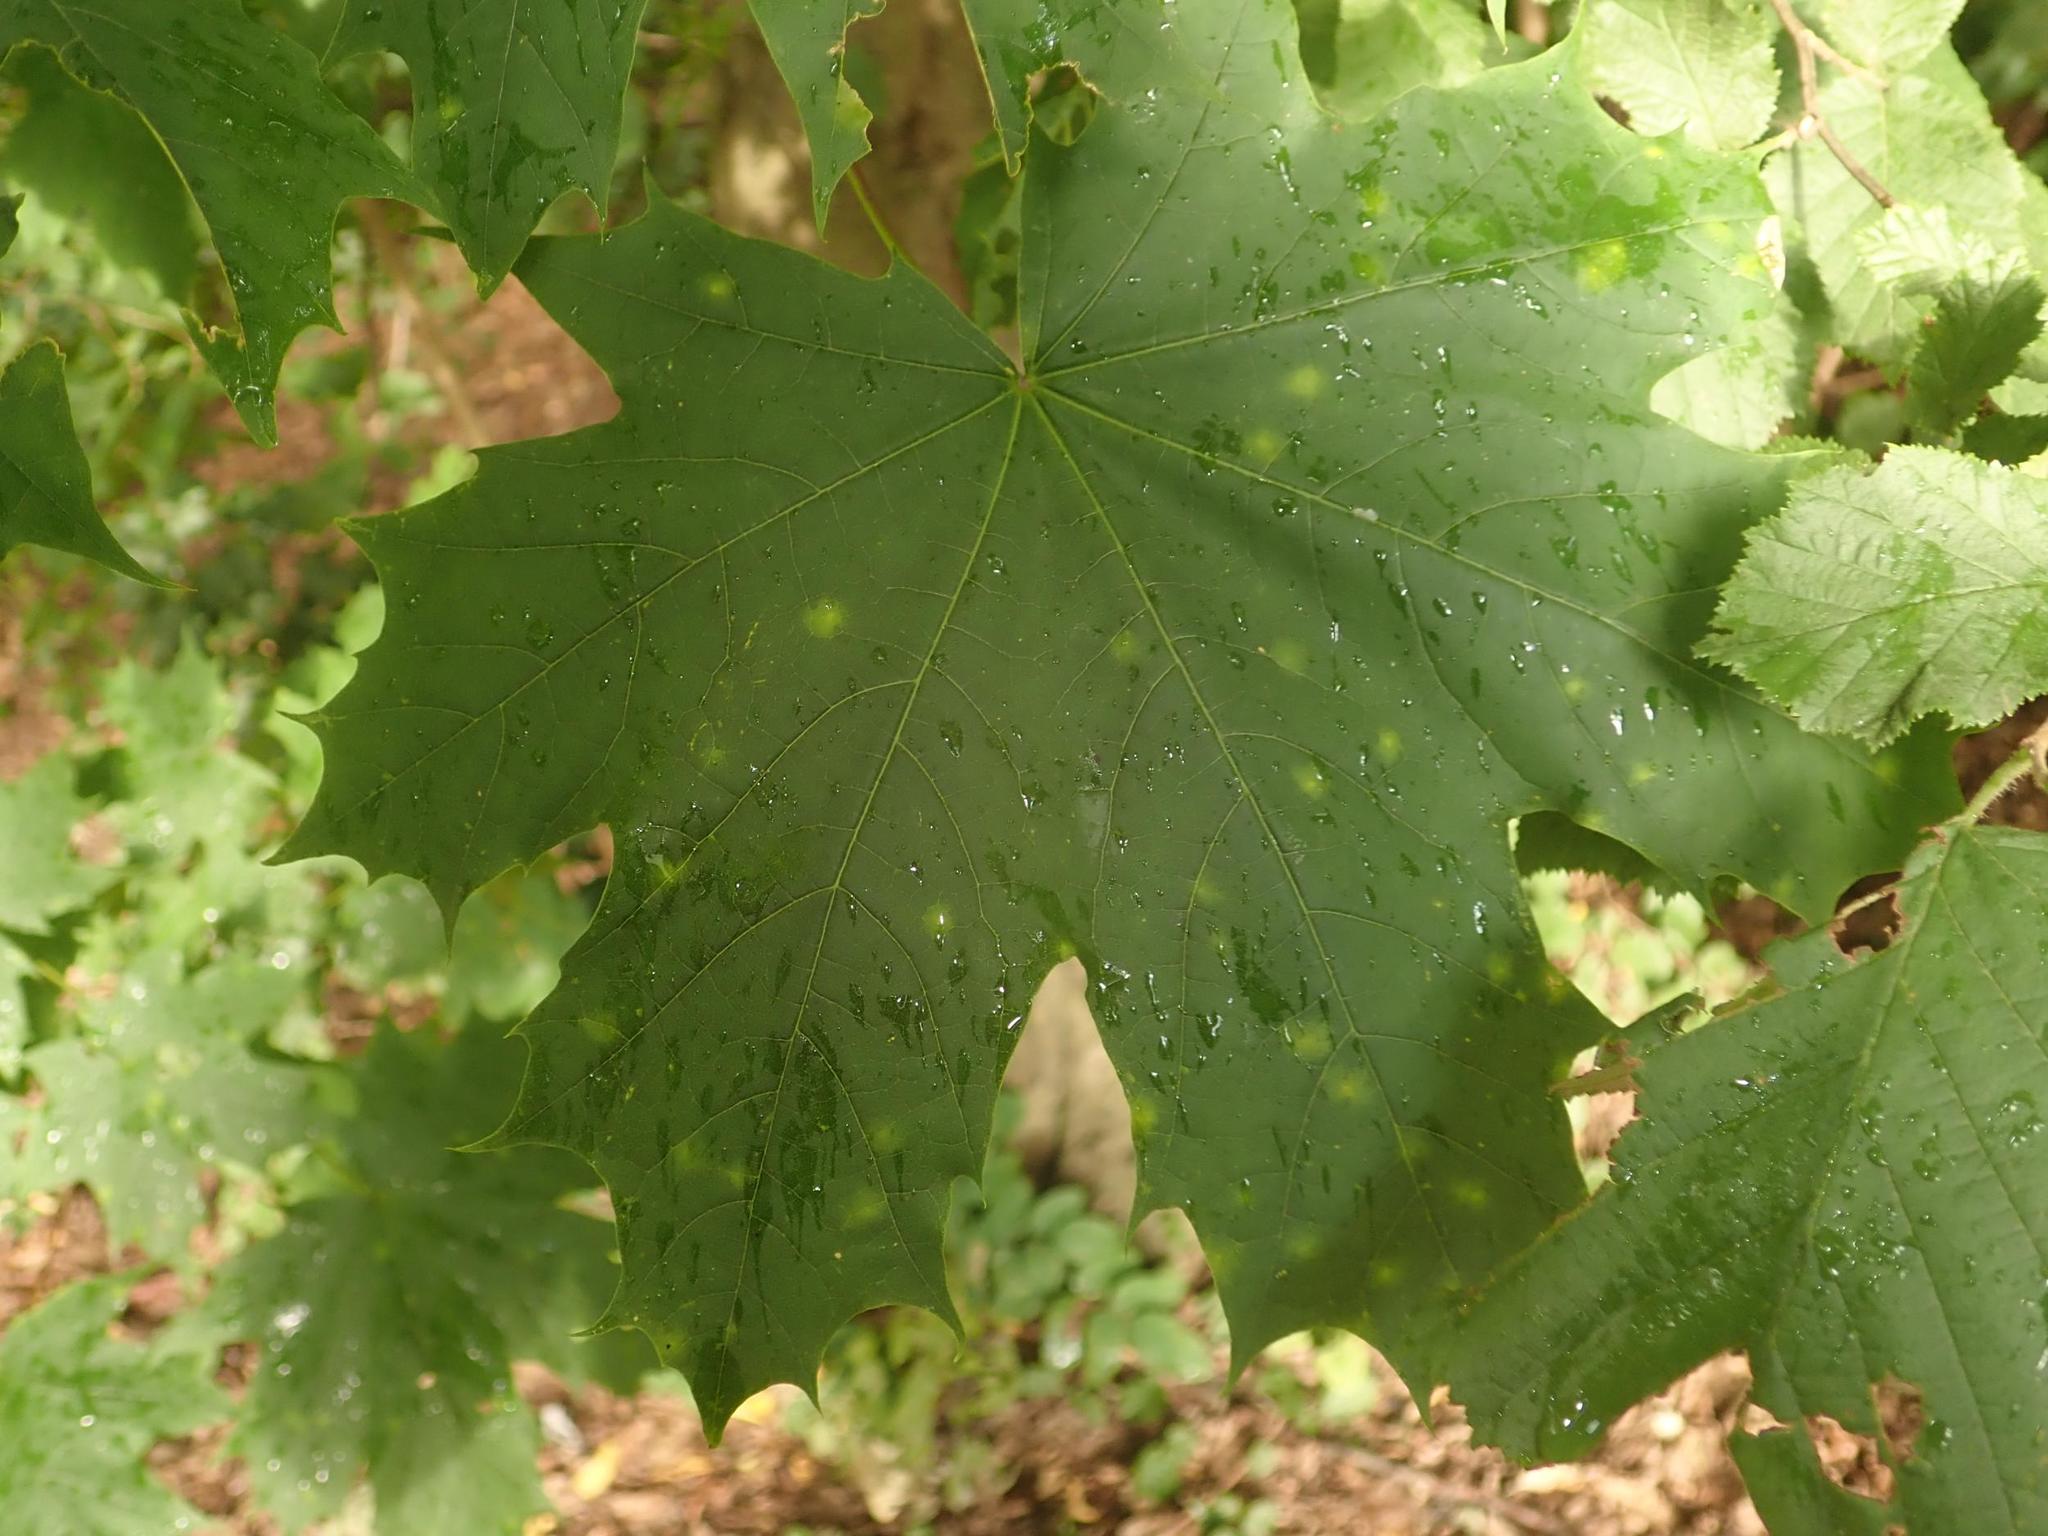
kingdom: Plantae
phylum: Tracheophyta
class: Magnoliopsida
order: Sapindales
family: Sapindaceae
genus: Acer
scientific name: Acer platanoides
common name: Norway maple
